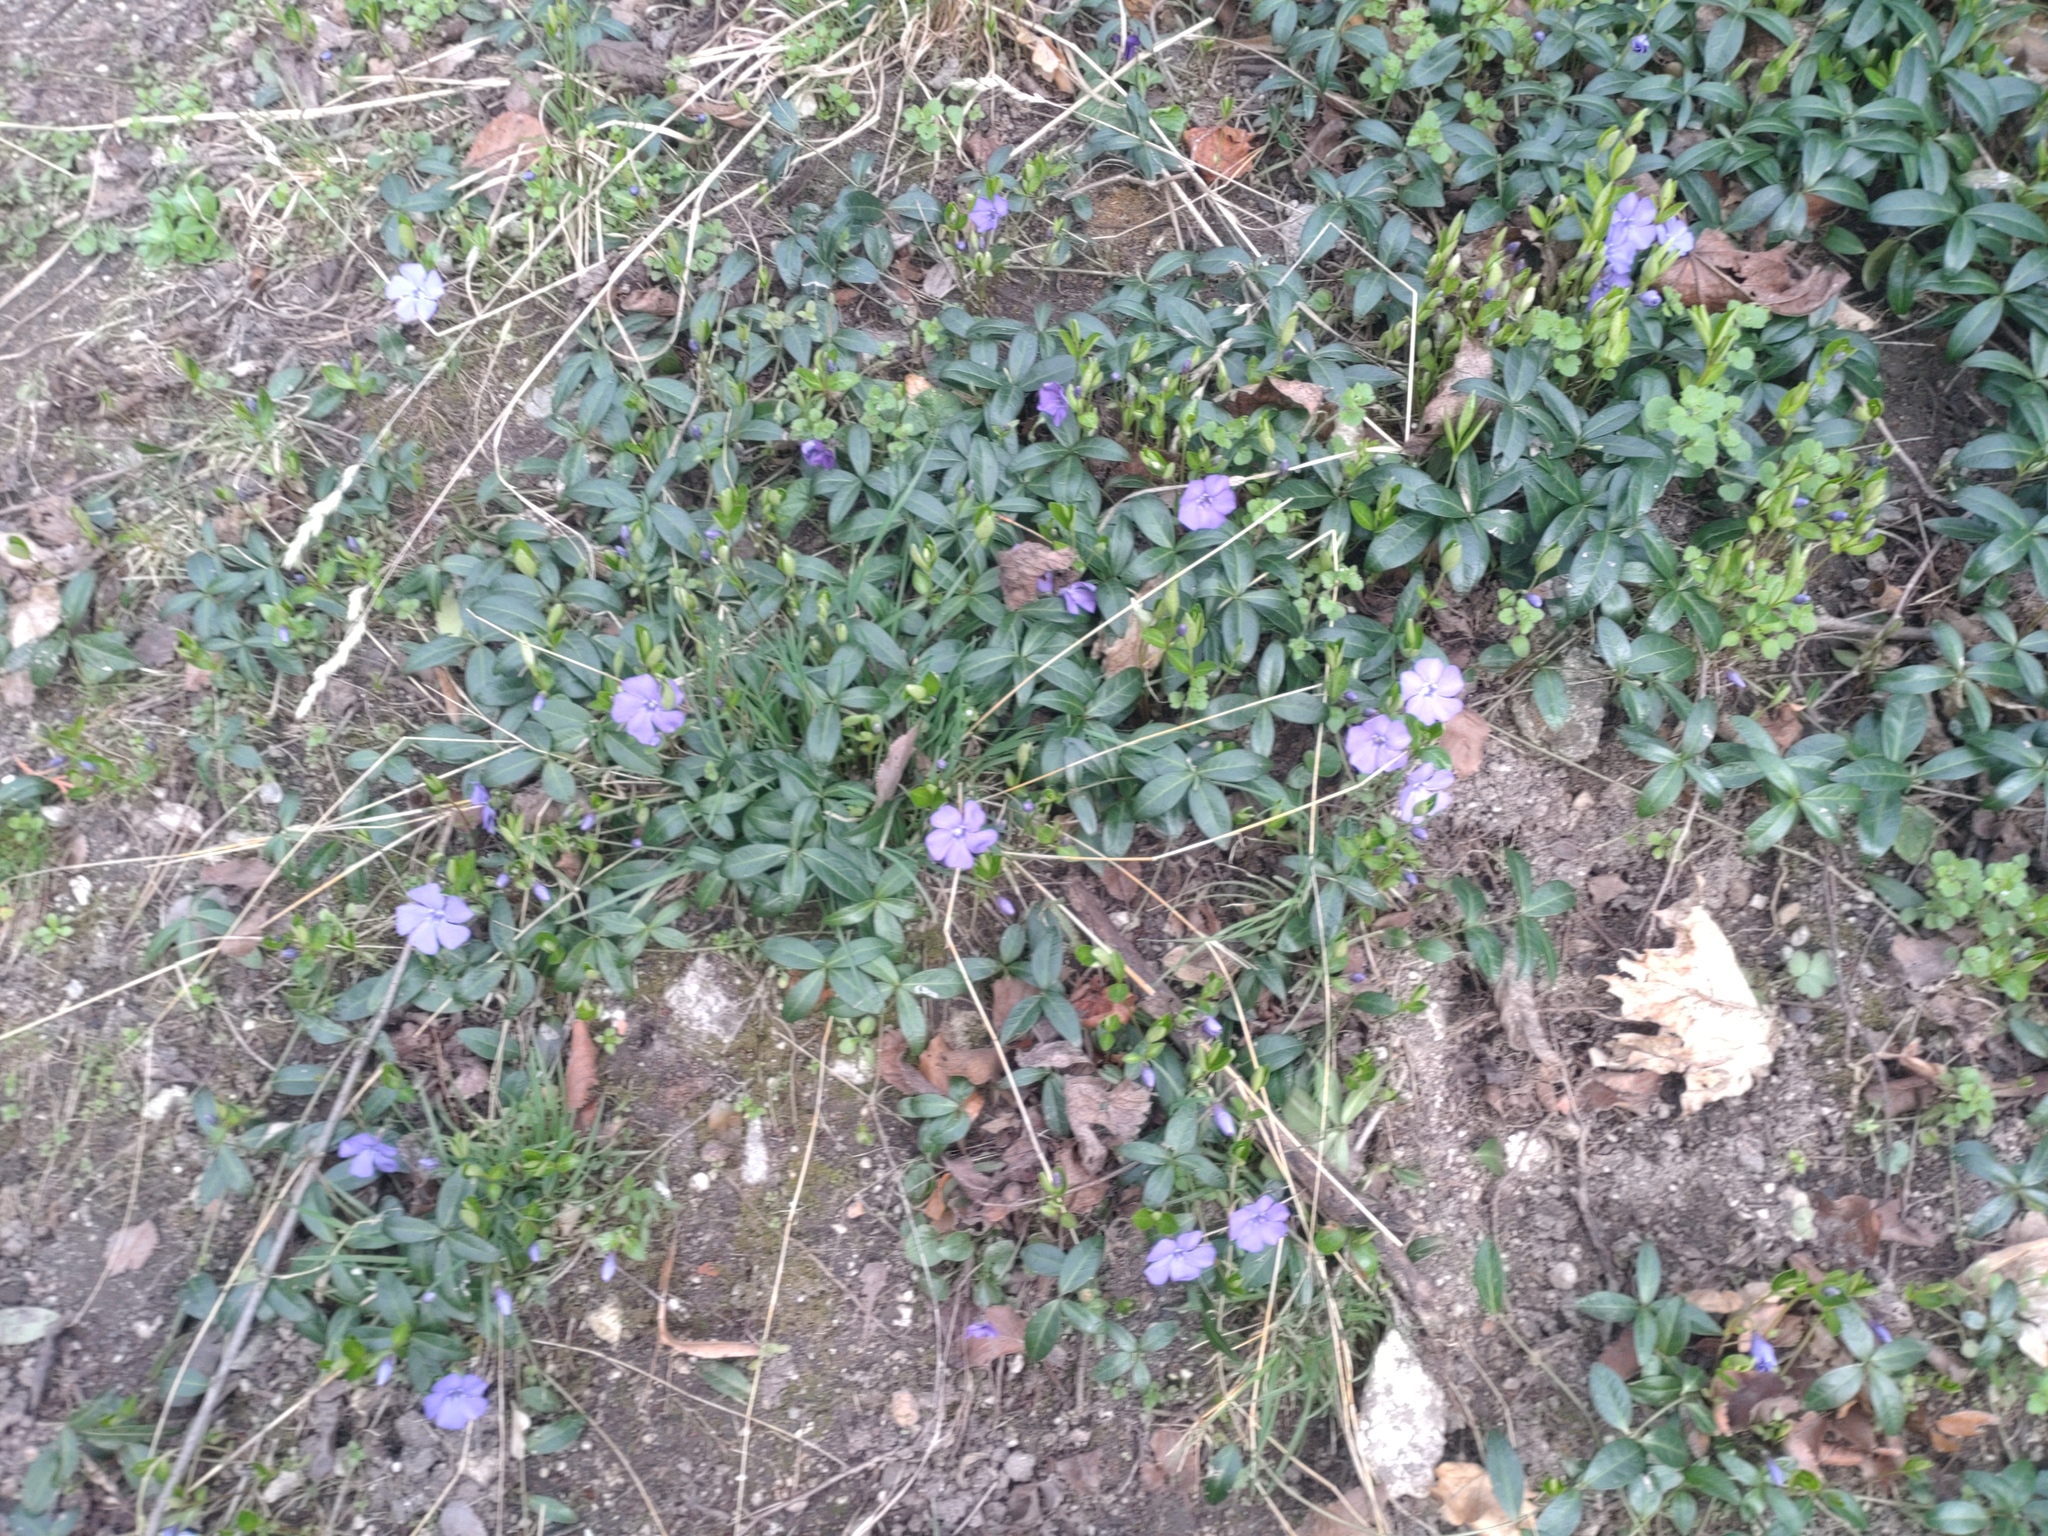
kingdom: Plantae
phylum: Tracheophyta
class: Magnoliopsida
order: Gentianales
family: Apocynaceae
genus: Vinca
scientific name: Vinca minor
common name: Lesser periwinkle
